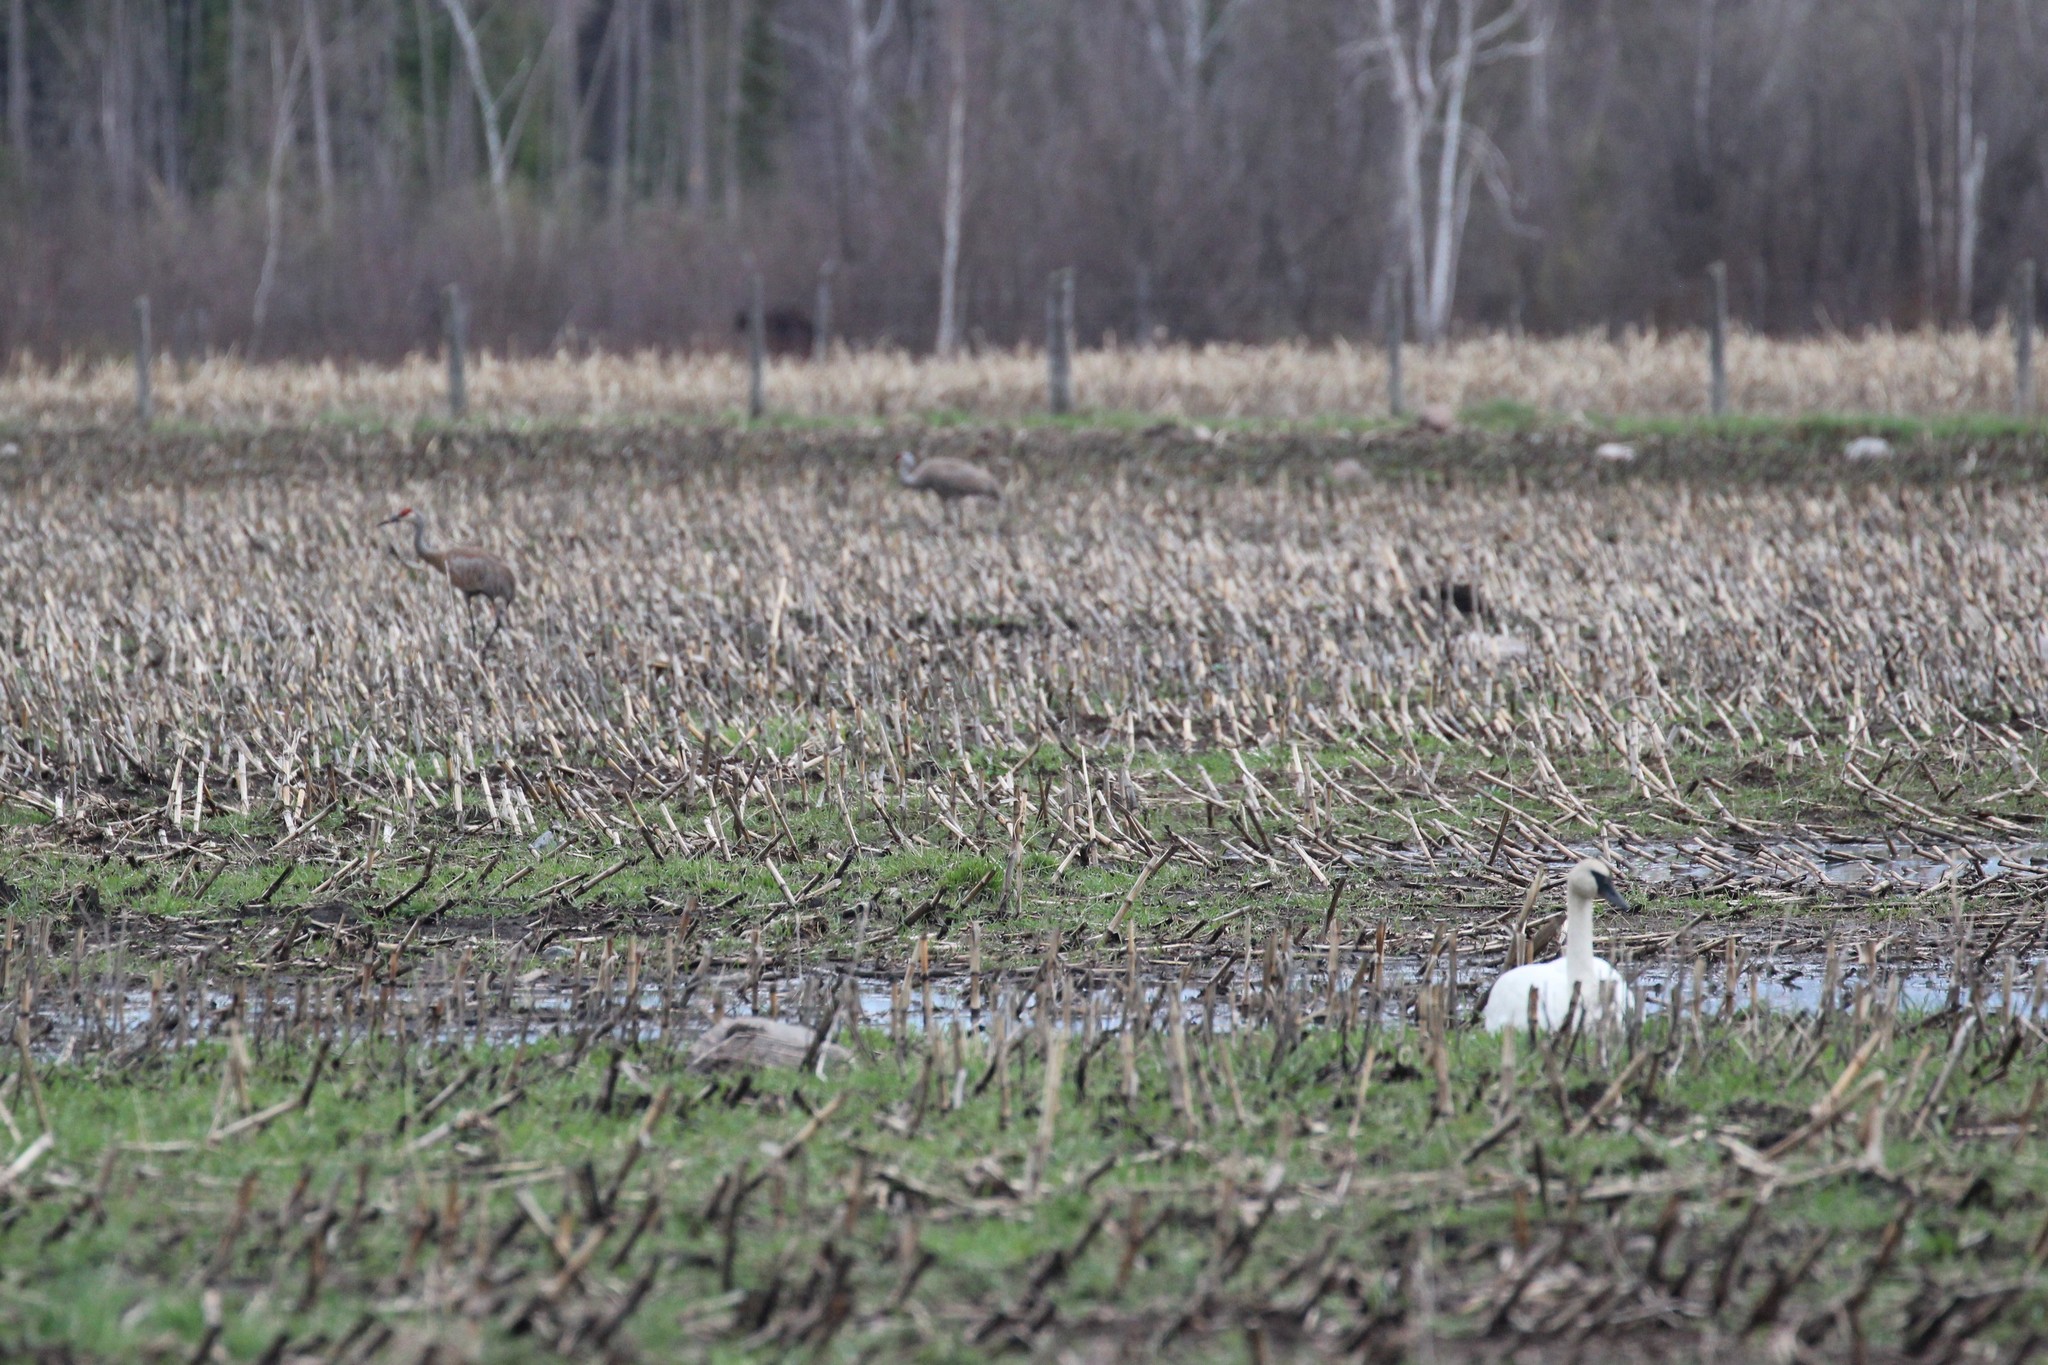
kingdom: Animalia
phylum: Chordata
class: Aves
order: Gruiformes
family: Gruidae
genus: Grus
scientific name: Grus canadensis
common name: Sandhill crane
